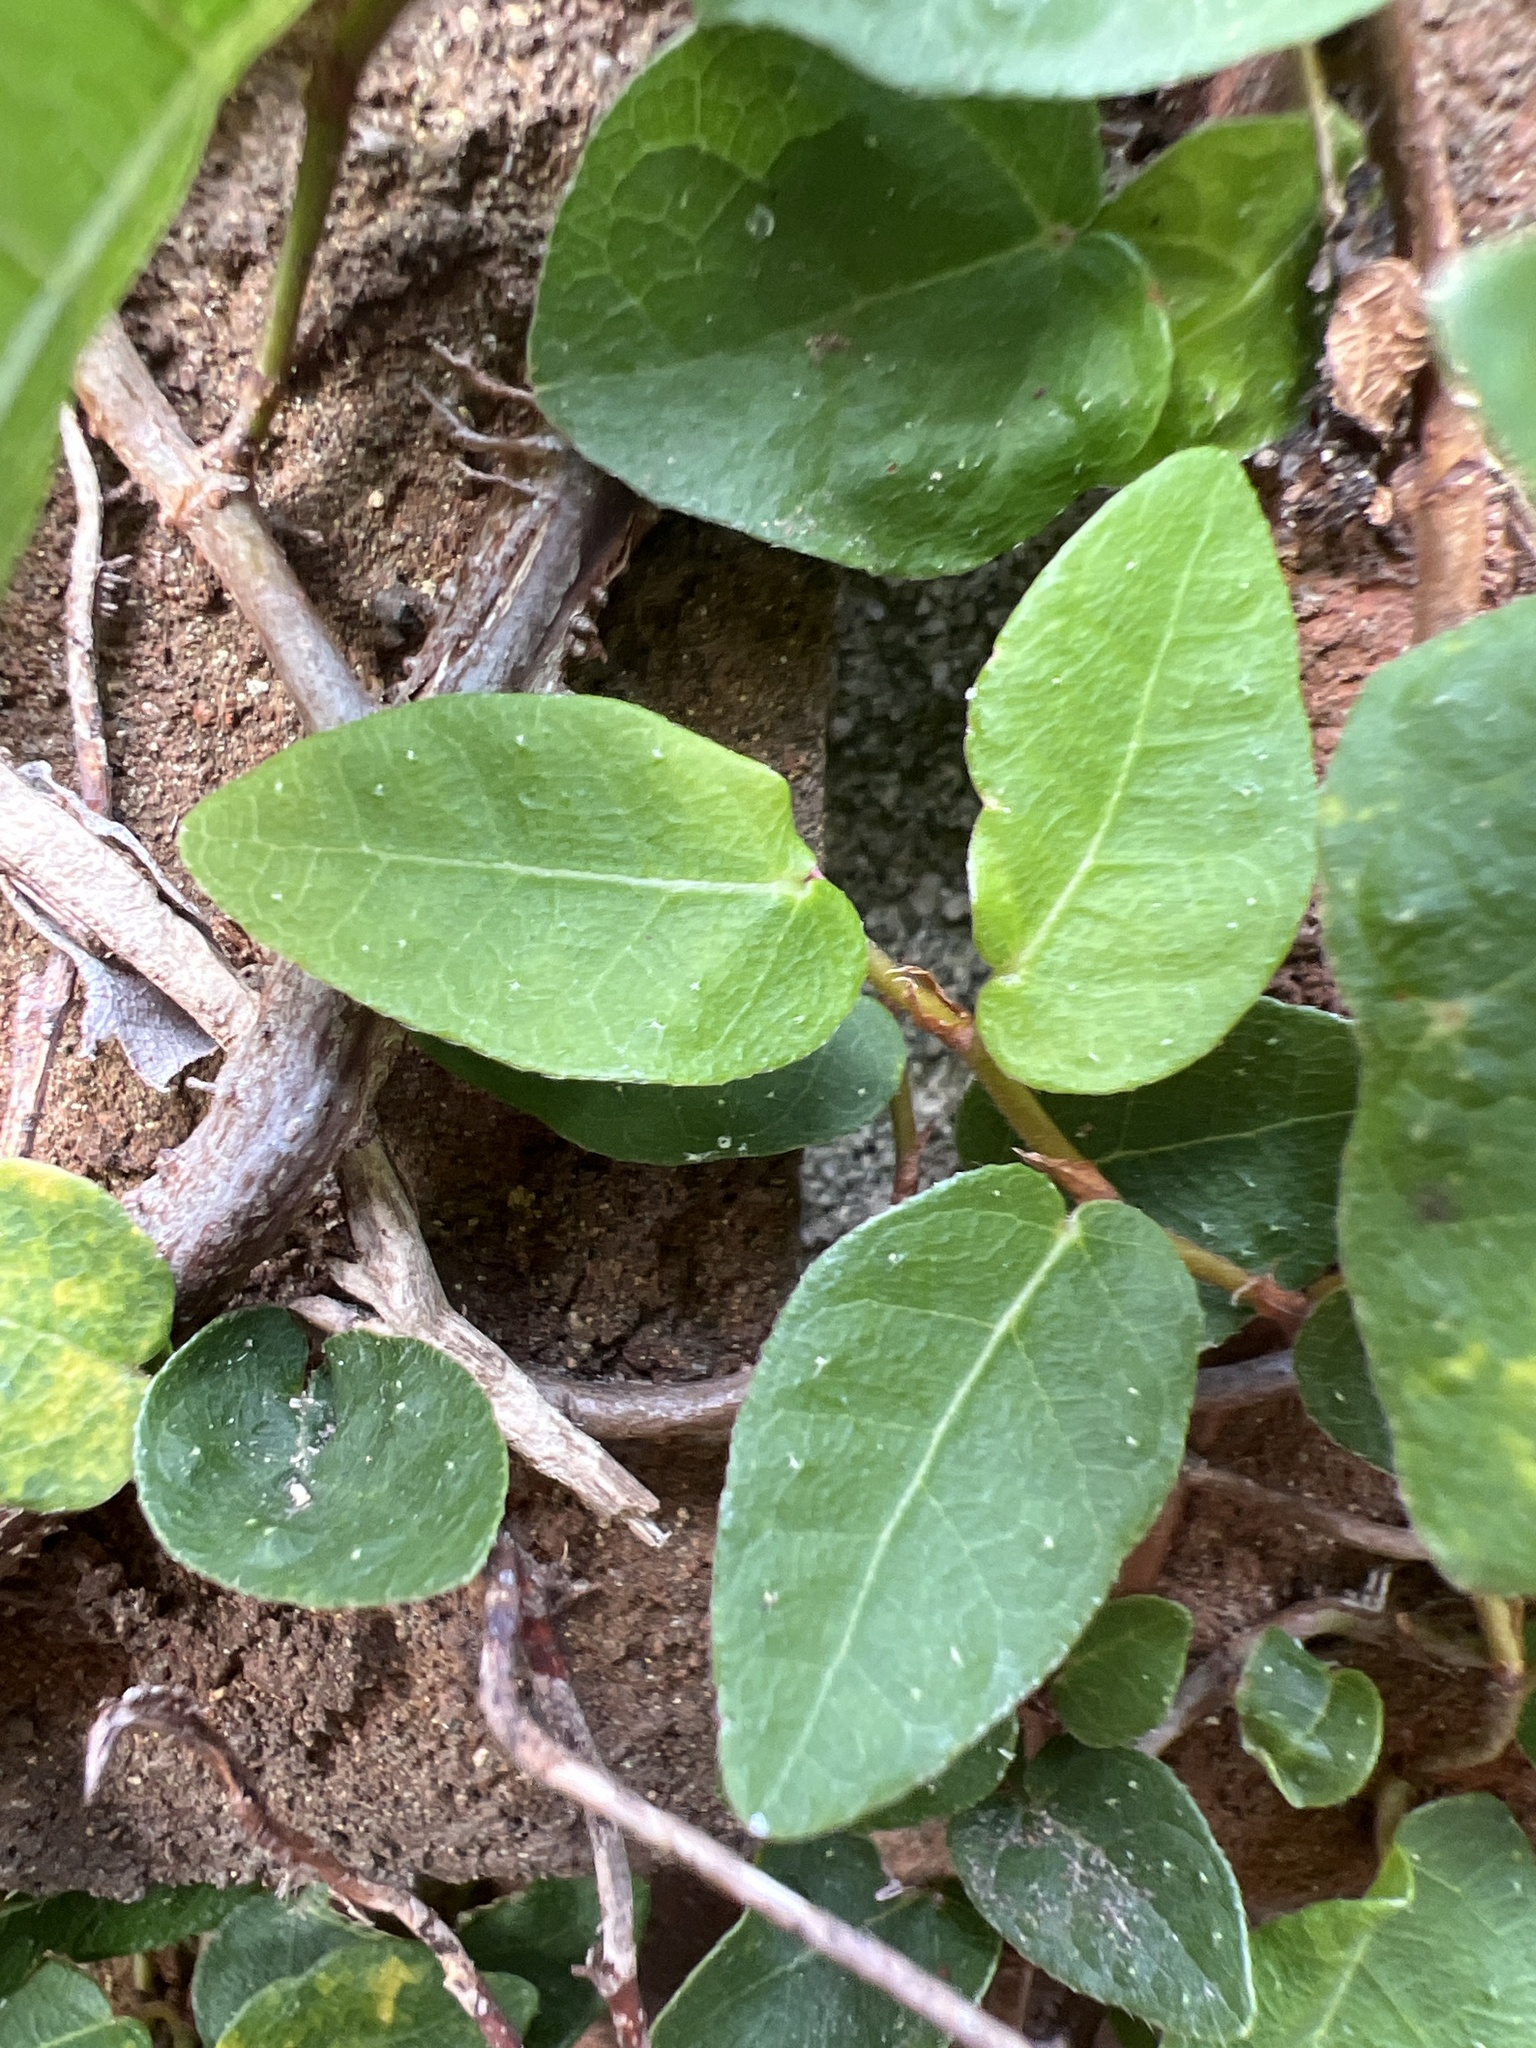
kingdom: Plantae
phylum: Tracheophyta
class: Magnoliopsida
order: Rosales
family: Moraceae
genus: Ficus
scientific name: Ficus pumila
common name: Climbingfig
